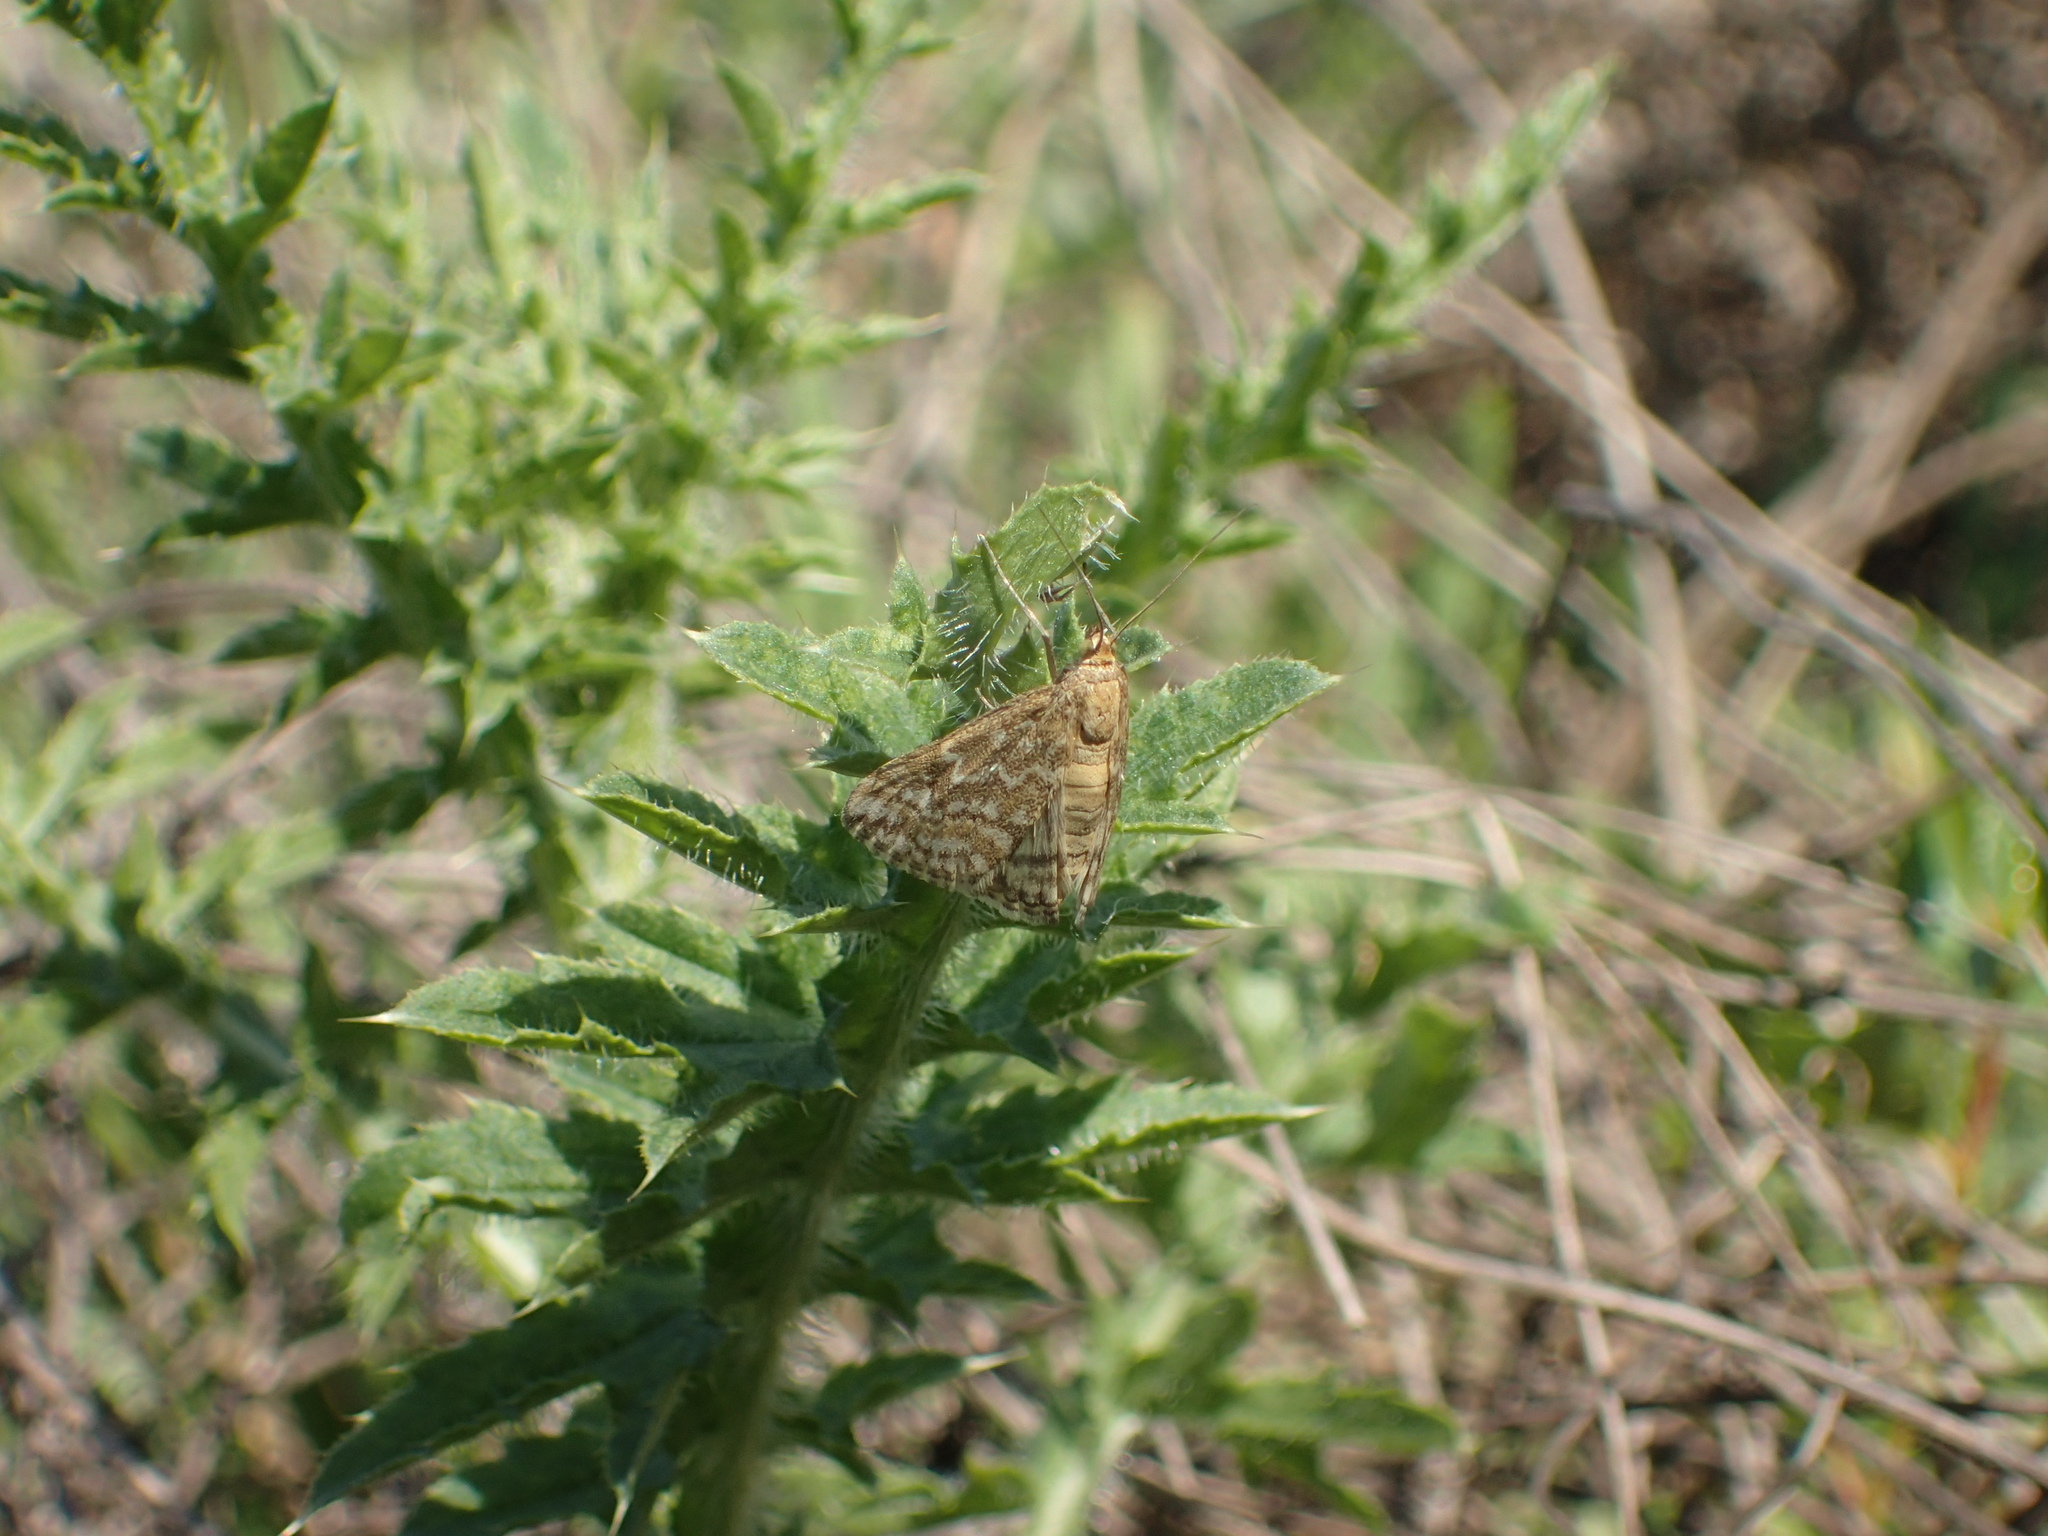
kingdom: Animalia
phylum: Arthropoda
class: Insecta
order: Lepidoptera
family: Crambidae
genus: Evergestis
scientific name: Evergestis frumentalis
